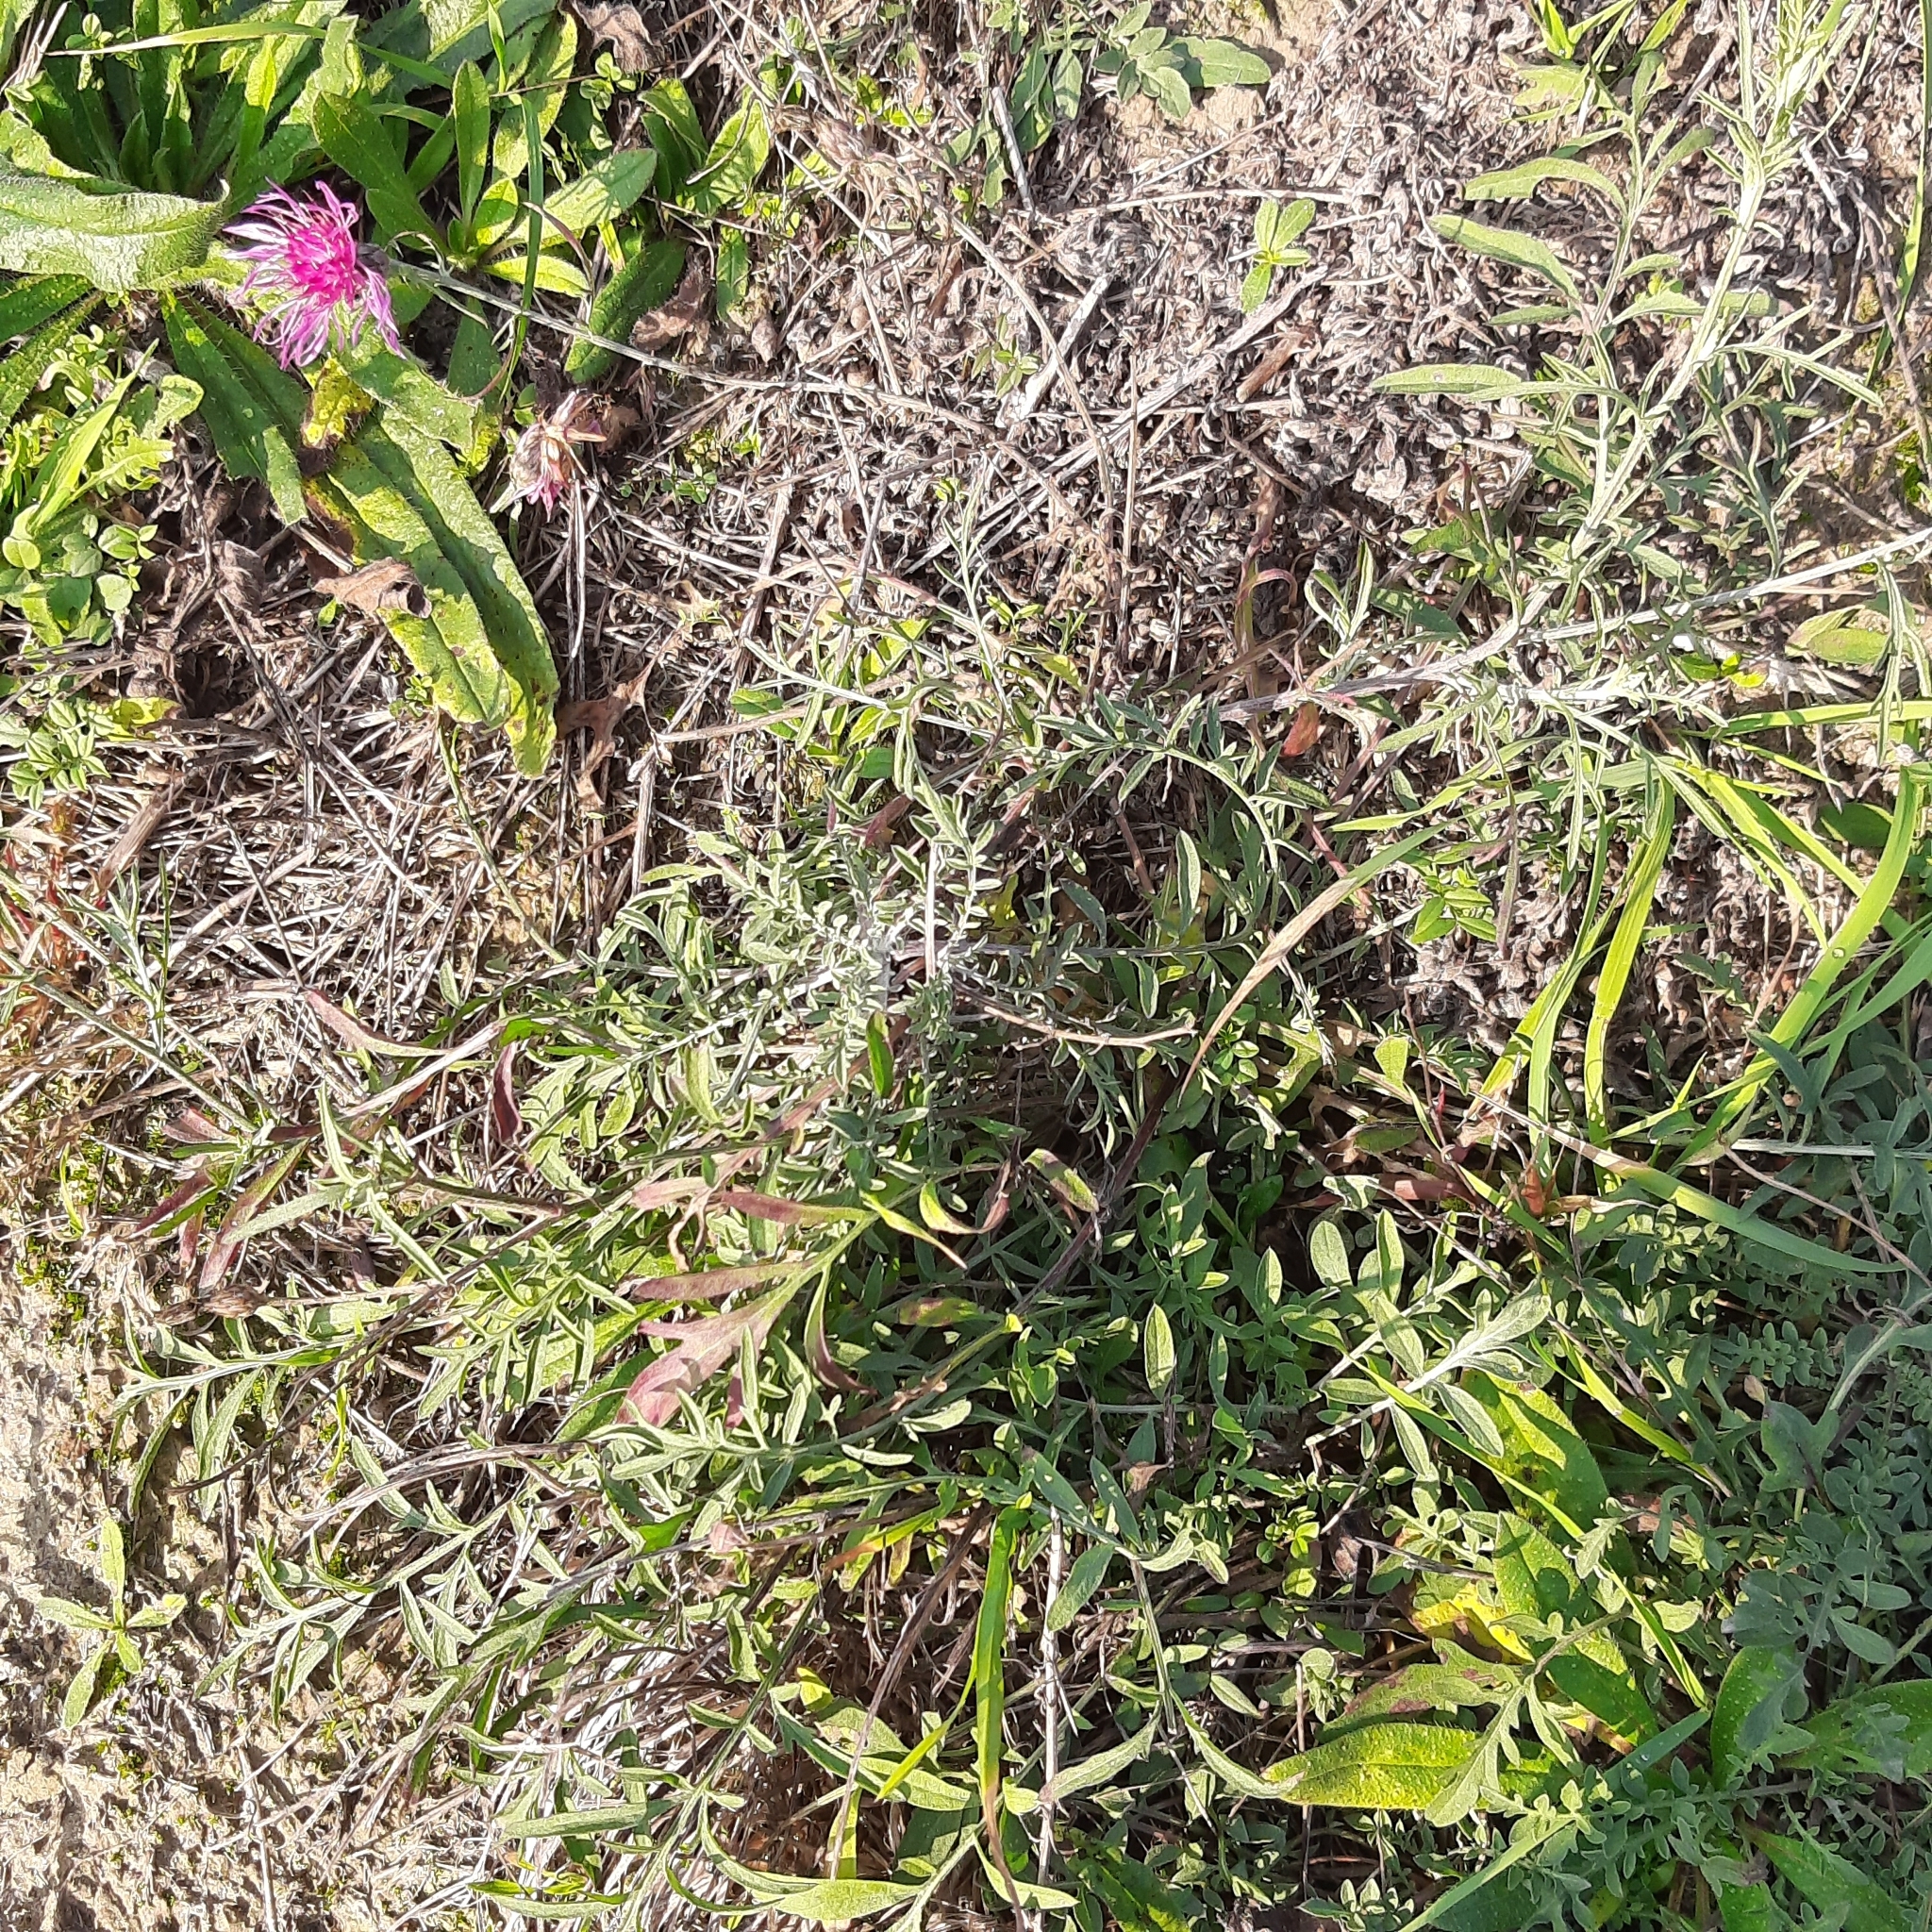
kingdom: Plantae
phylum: Tracheophyta
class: Magnoliopsida
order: Asterales
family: Asteraceae
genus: Centaurea
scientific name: Centaurea stoebe
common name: Spotted knapweed
